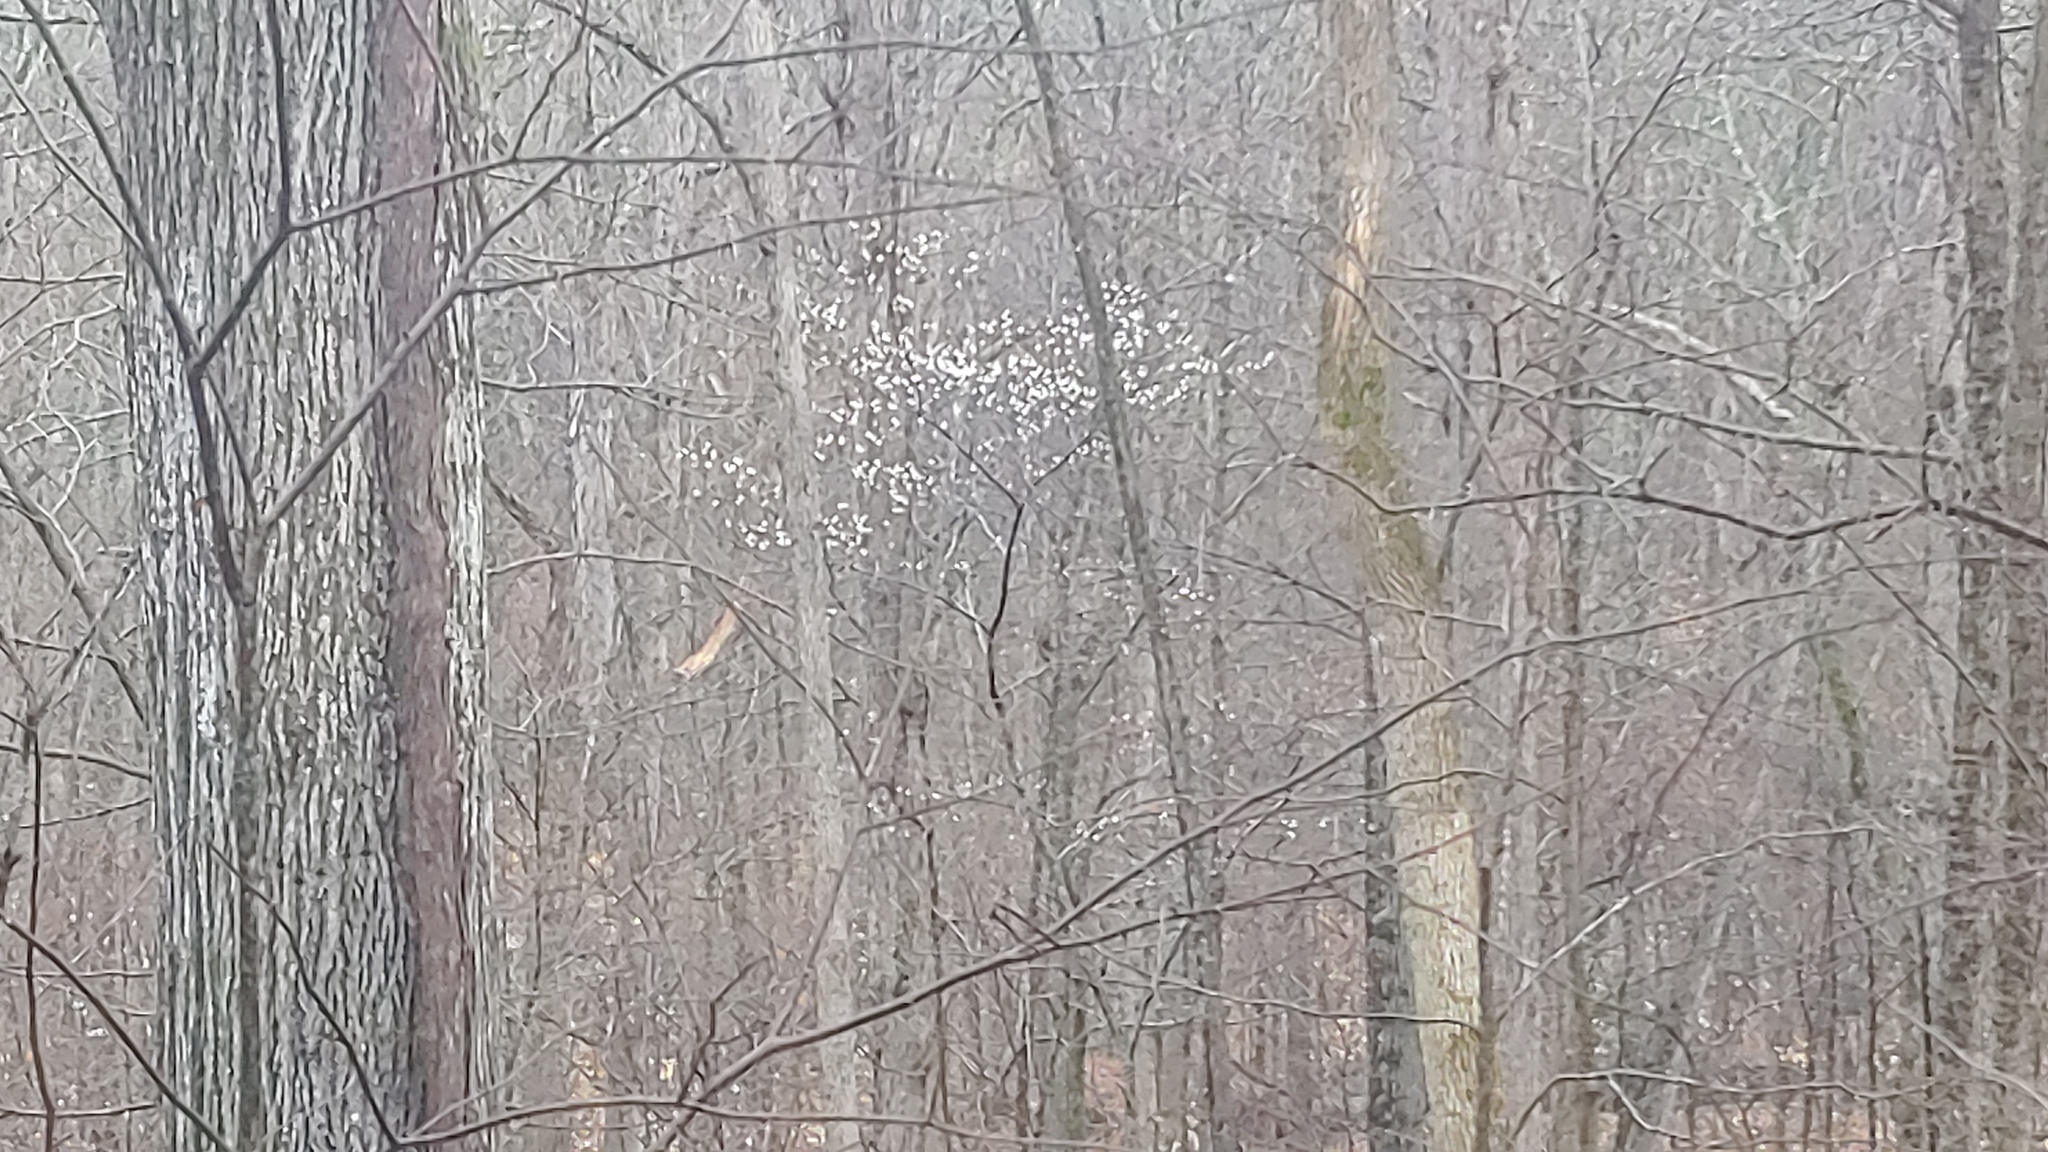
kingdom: Plantae
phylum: Tracheophyta
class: Magnoliopsida
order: Rosales
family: Rosaceae
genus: Amelanchier
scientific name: Amelanchier arborea
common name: Downy serviceberry
